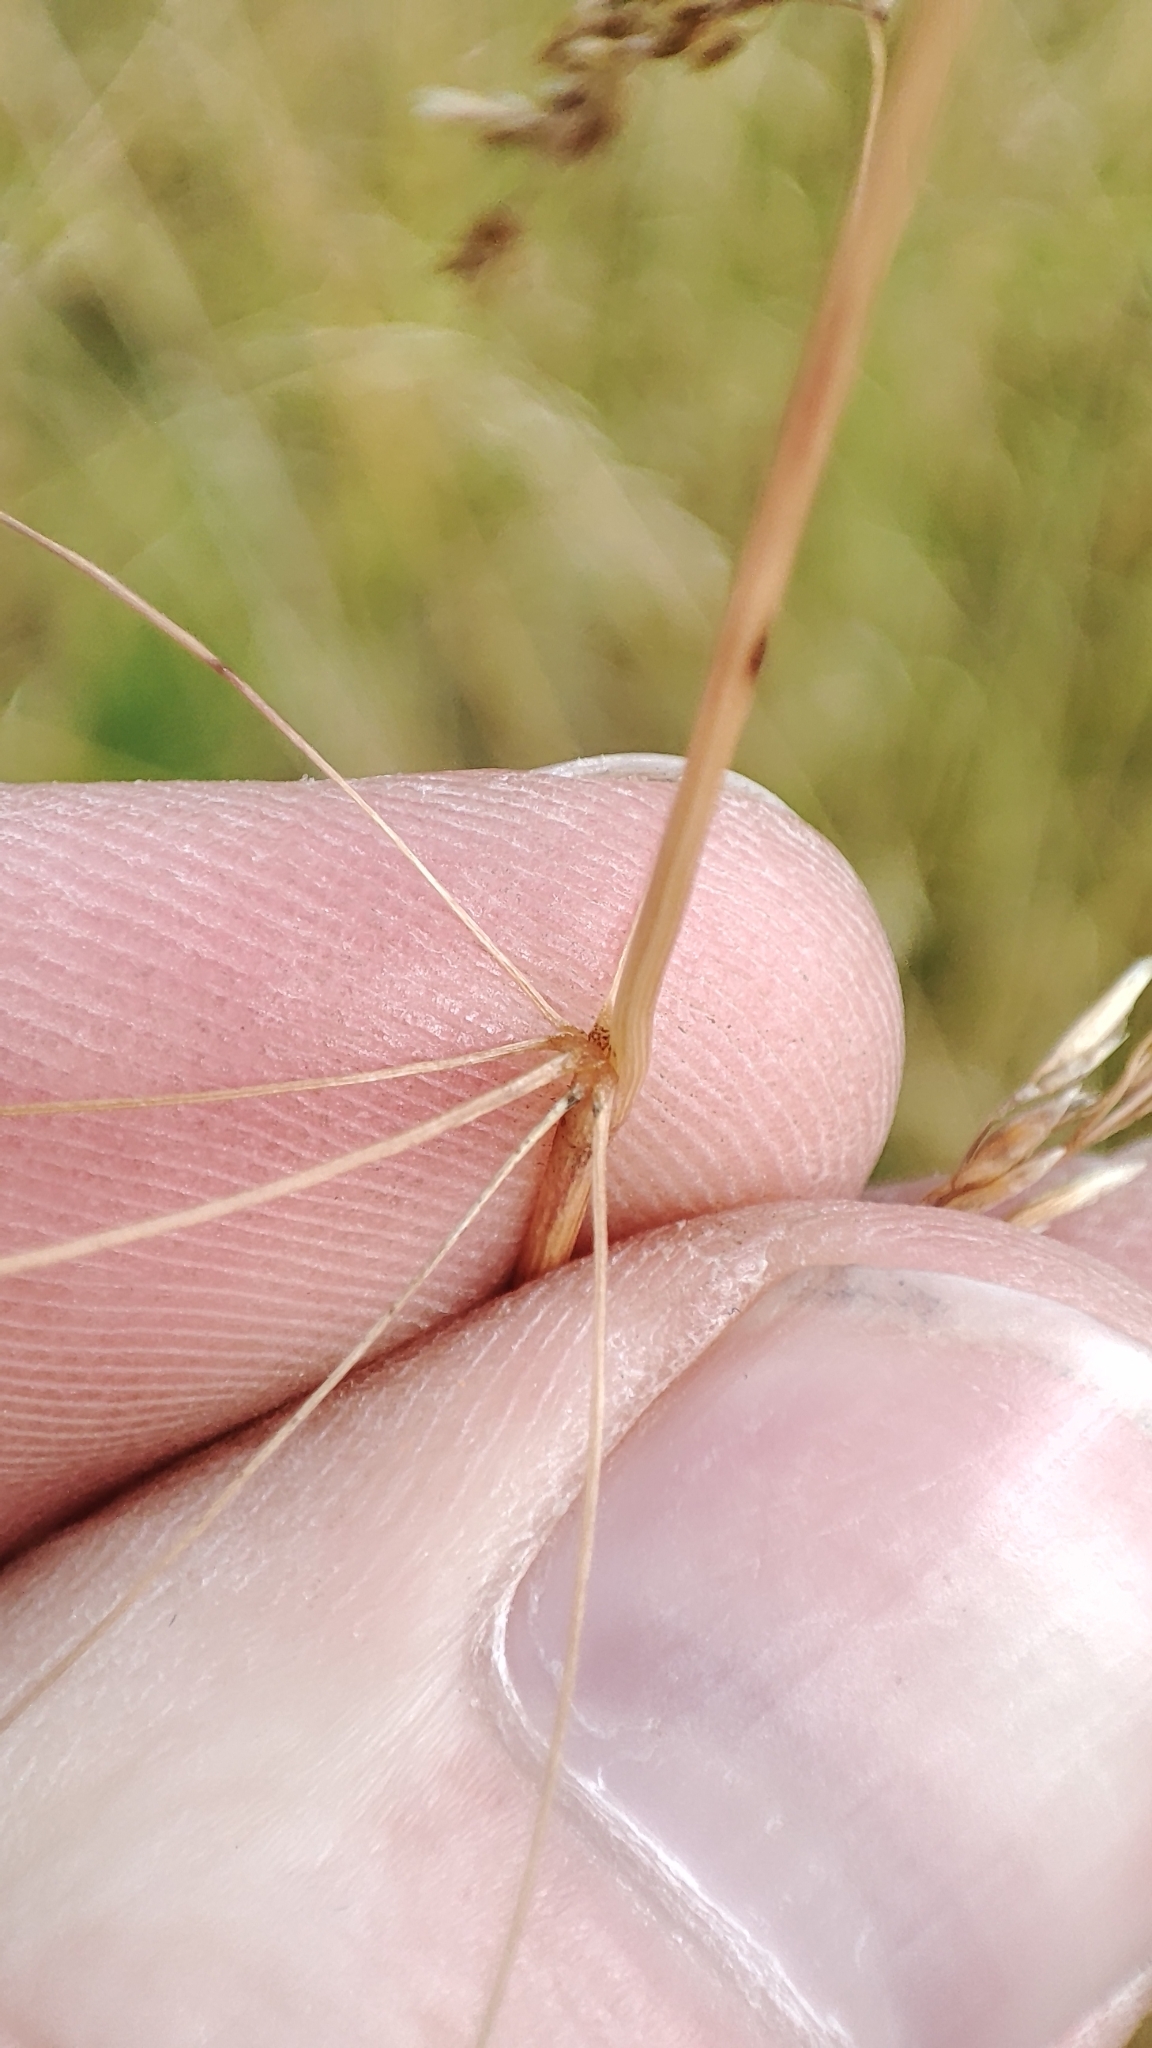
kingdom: Plantae
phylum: Tracheophyta
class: Liliopsida
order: Poales
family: Poaceae
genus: Deschampsia
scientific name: Deschampsia cespitosa
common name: Tufted hair-grass
